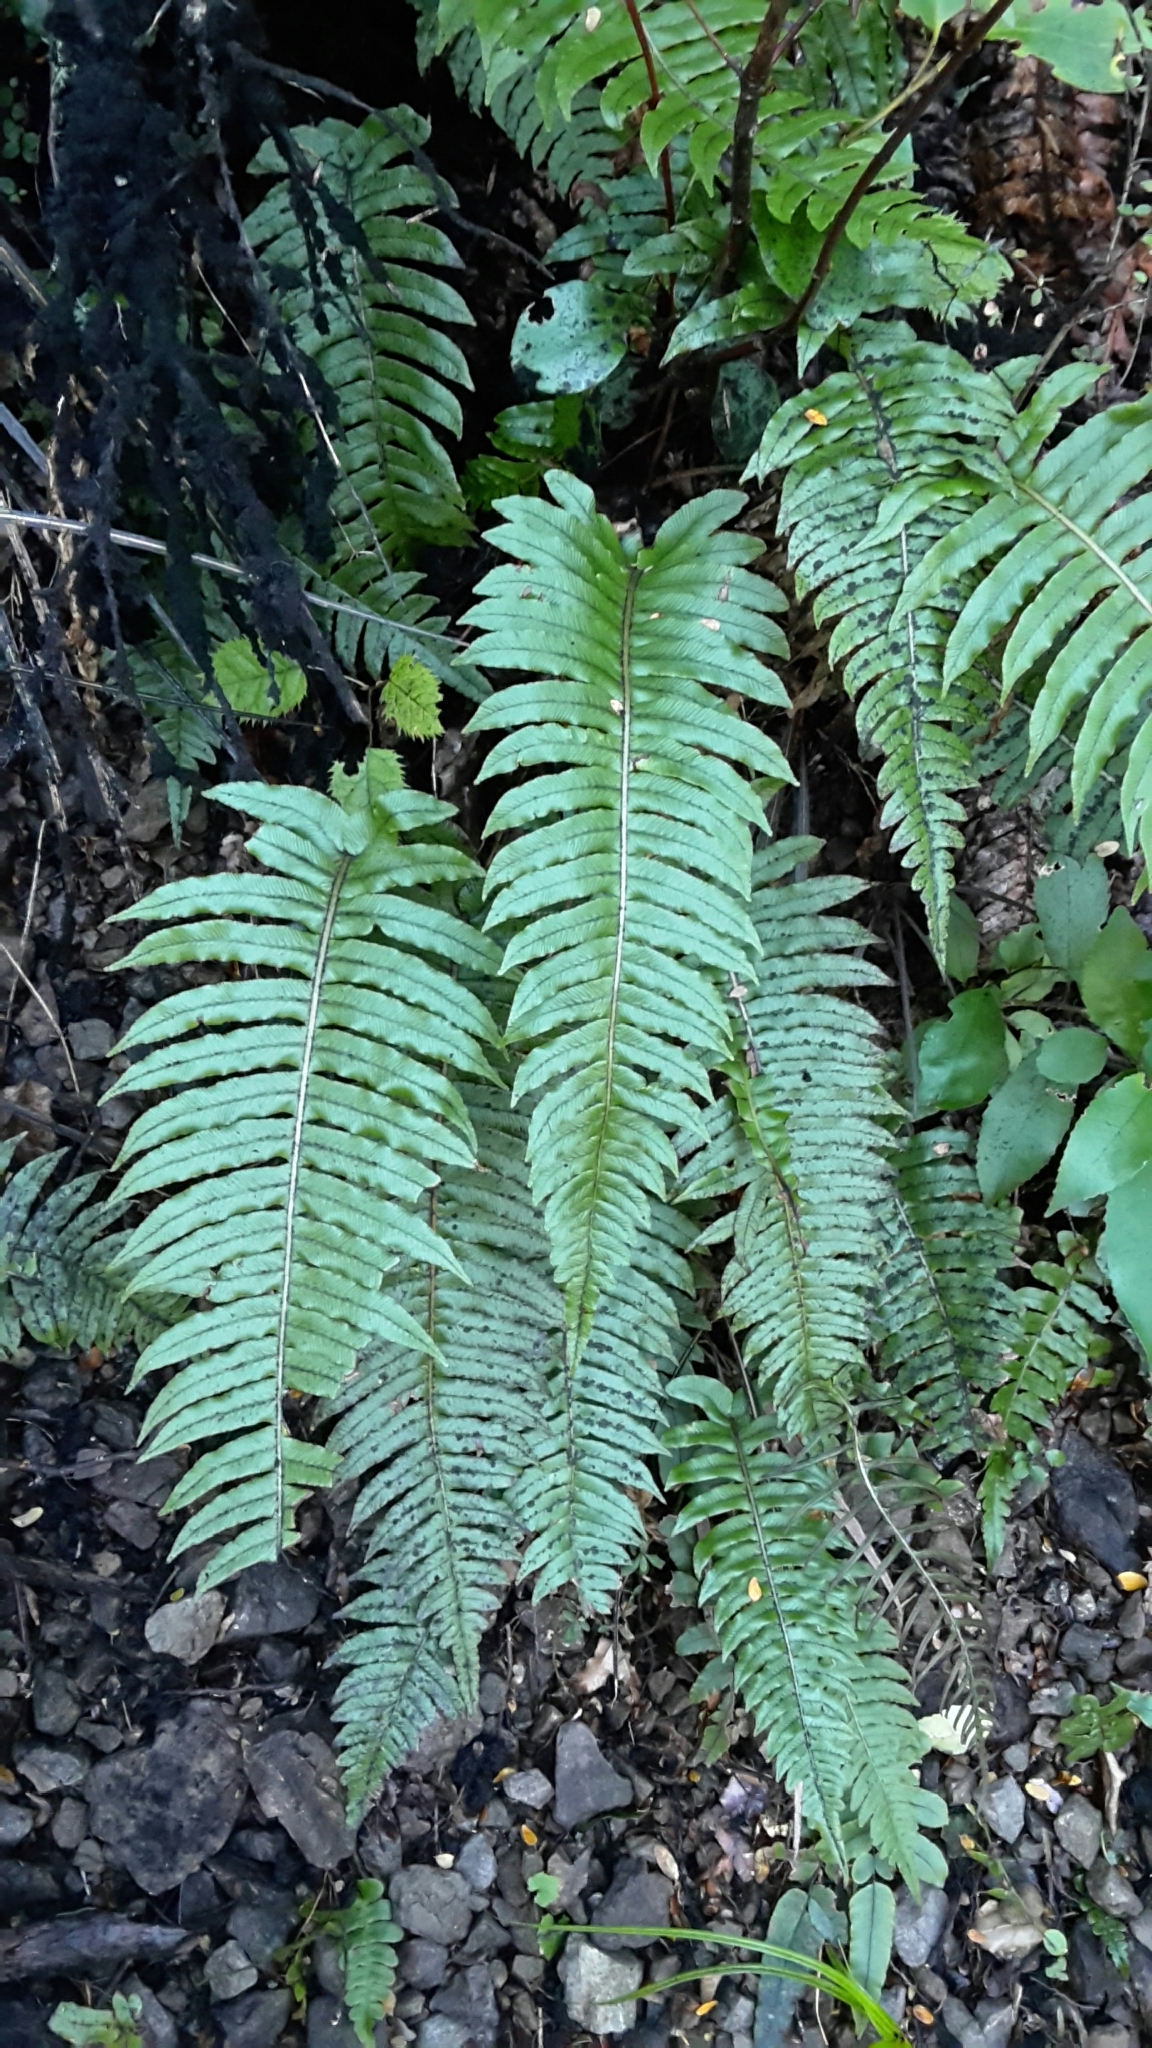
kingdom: Plantae
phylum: Tracheophyta
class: Polypodiopsida
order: Polypodiales
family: Blechnaceae
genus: Cranfillia
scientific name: Cranfillia deltoides
